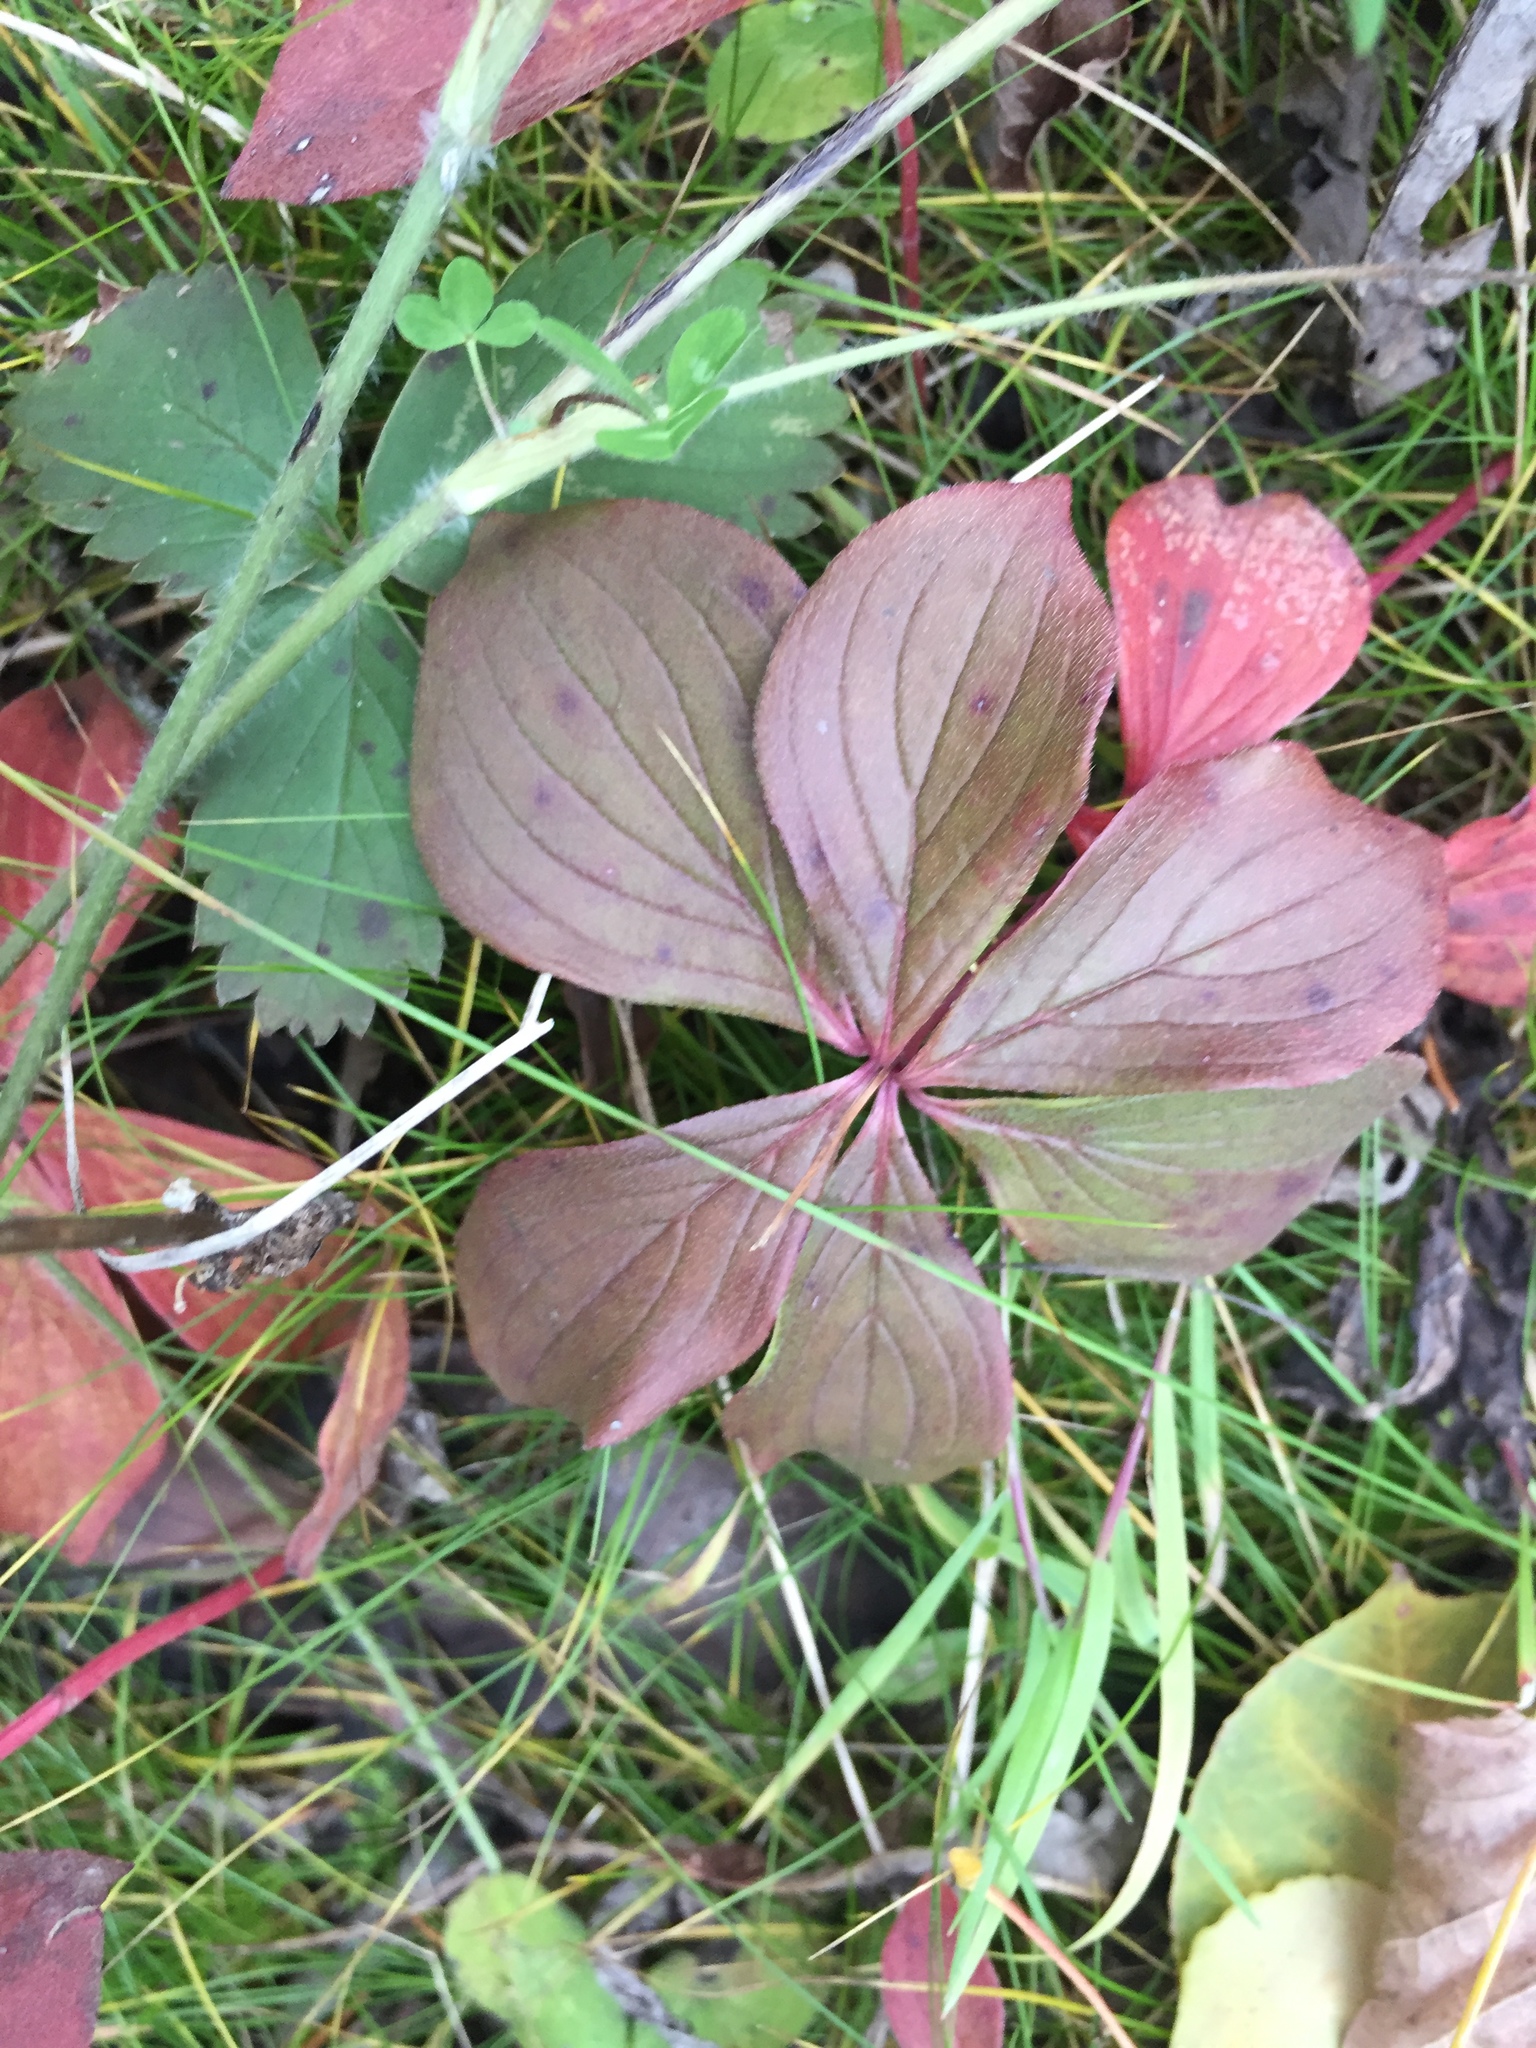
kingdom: Plantae
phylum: Tracheophyta
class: Magnoliopsida
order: Cornales
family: Cornaceae
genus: Cornus
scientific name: Cornus canadensis
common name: Creeping dogwood
